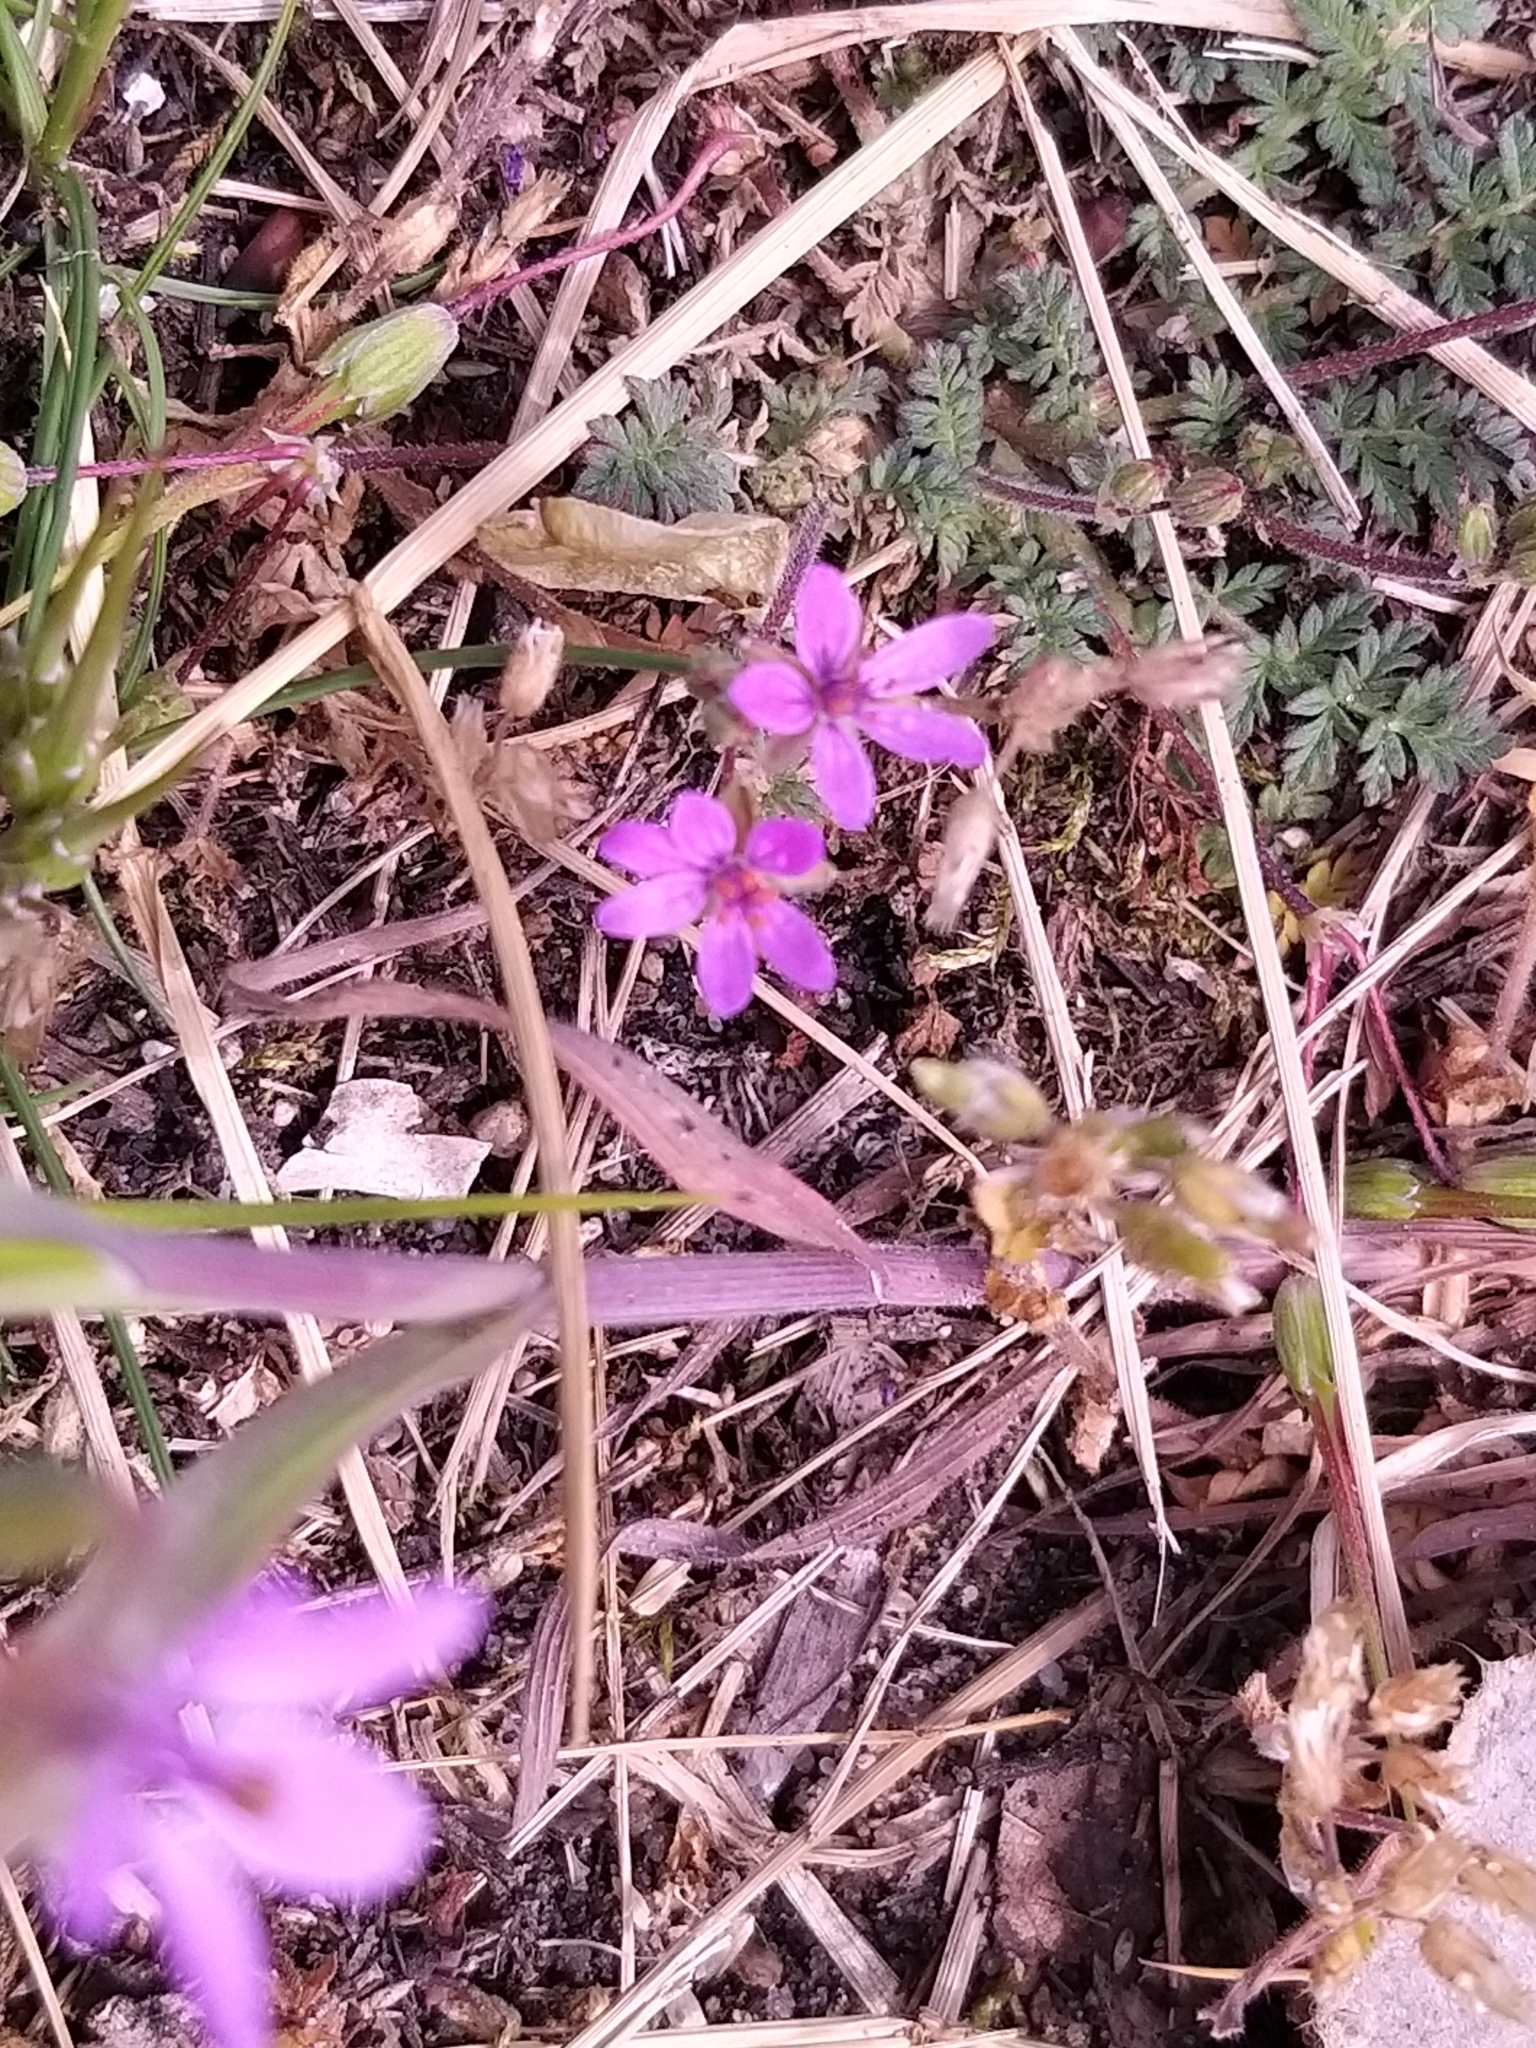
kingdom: Plantae
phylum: Tracheophyta
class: Magnoliopsida
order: Geraniales
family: Geraniaceae
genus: Erodium
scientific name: Erodium cicutarium
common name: Common stork's-bill
